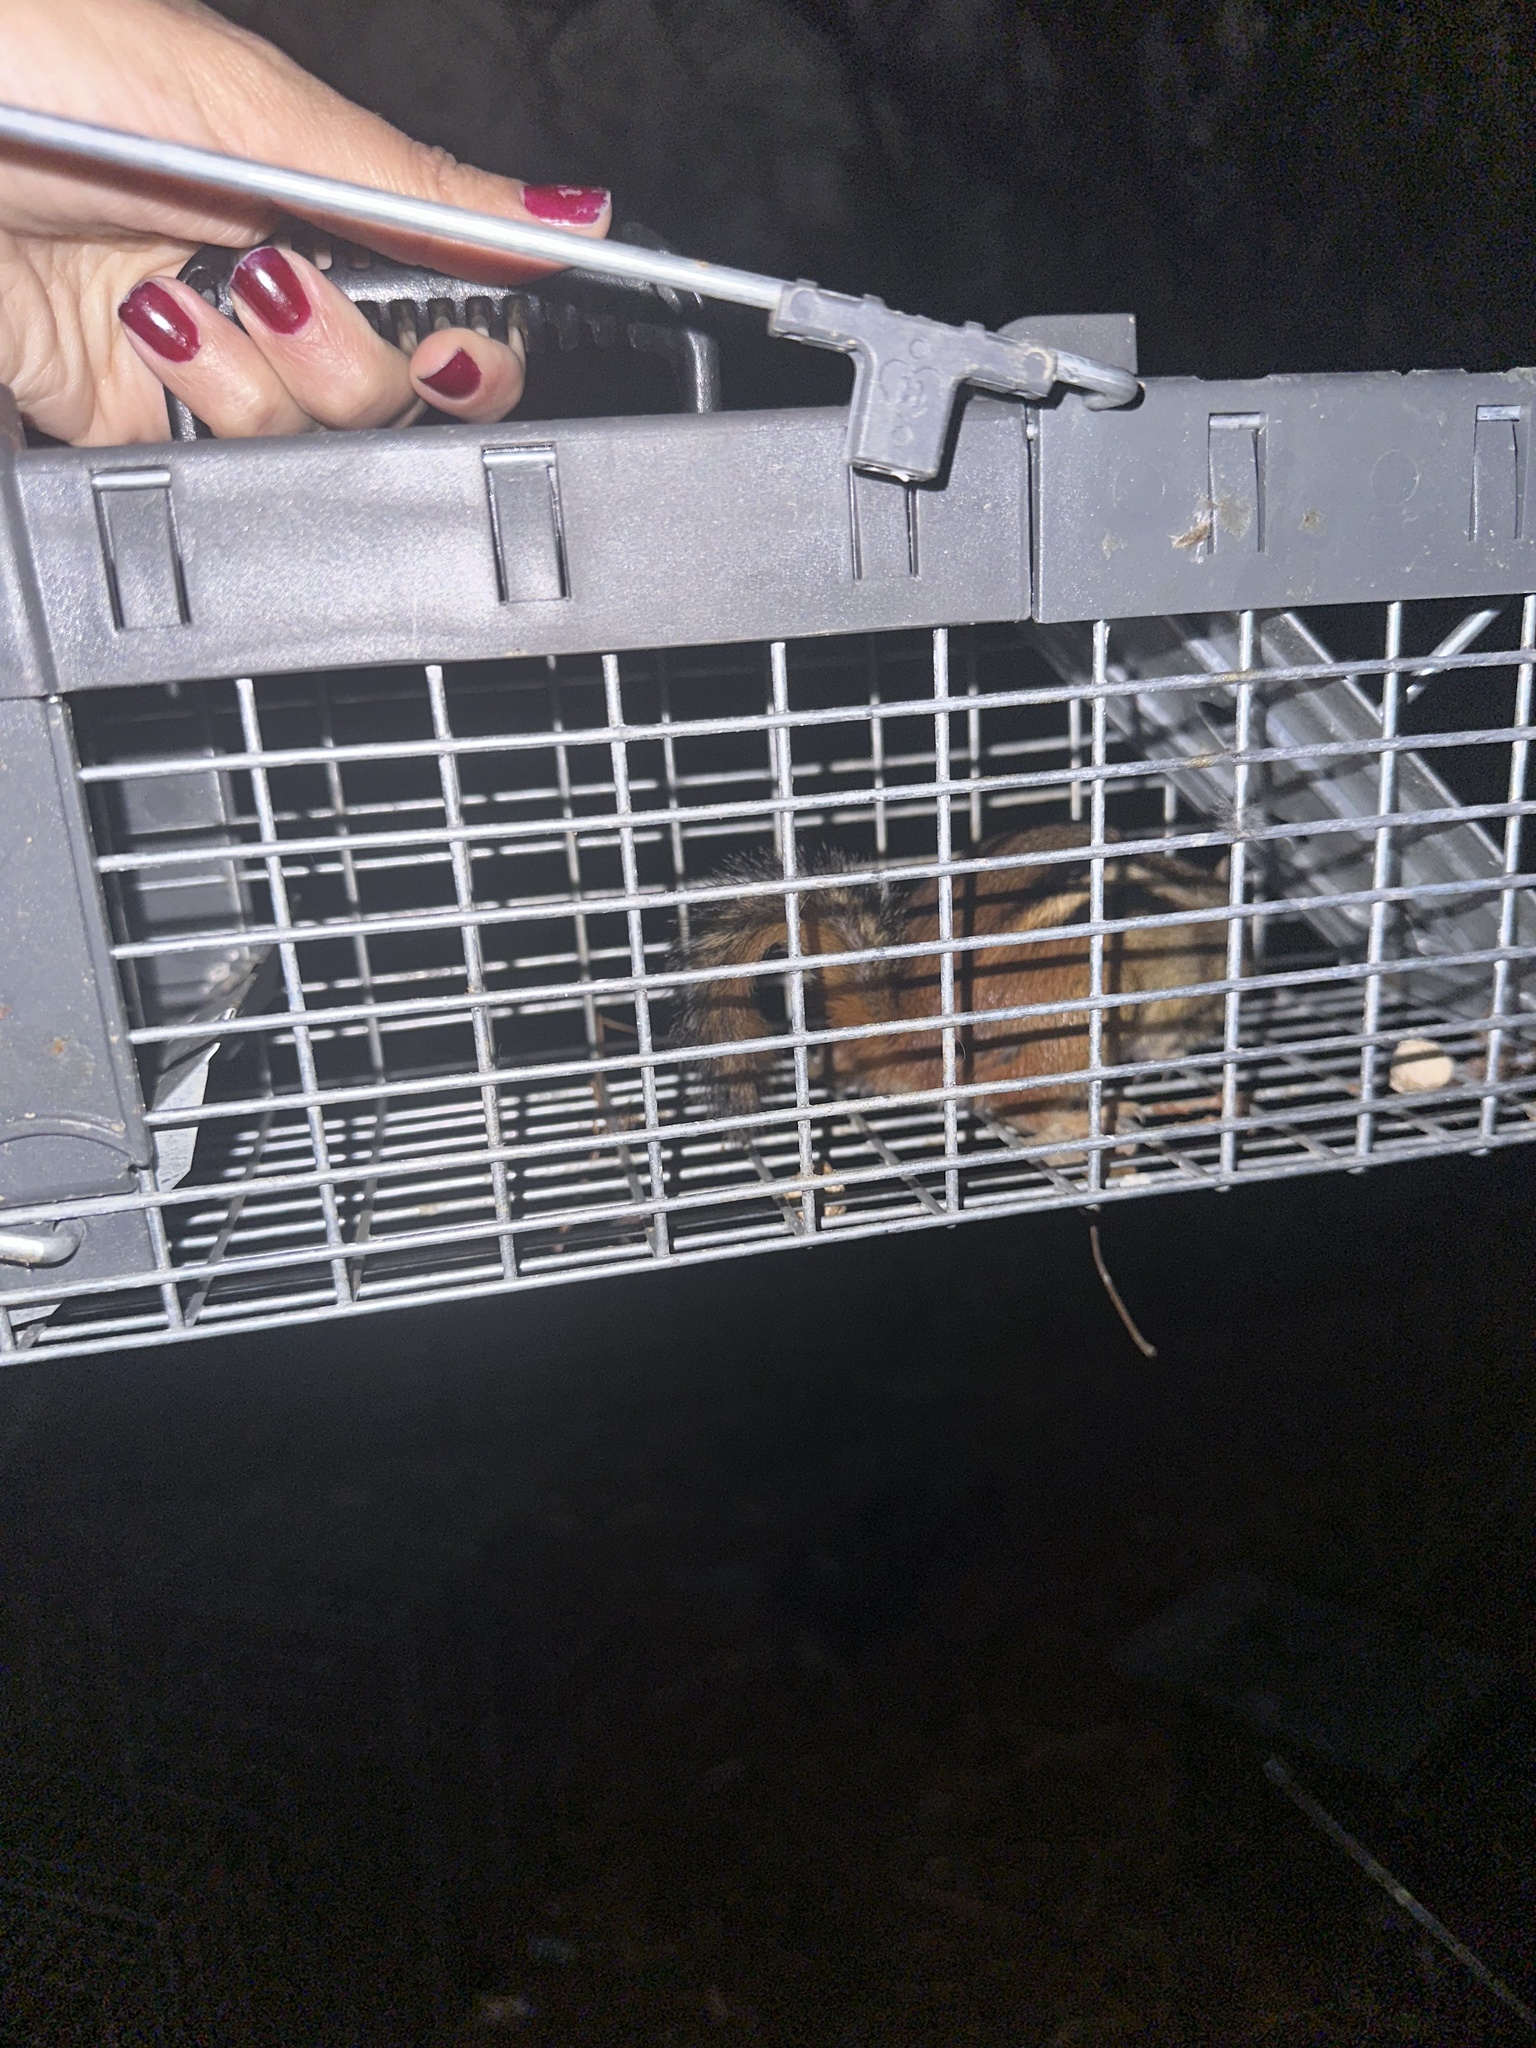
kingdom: Animalia
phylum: Chordata
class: Mammalia
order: Rodentia
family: Sciuridae
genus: Tamias
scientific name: Tamias striatus
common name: Eastern chipmunk
